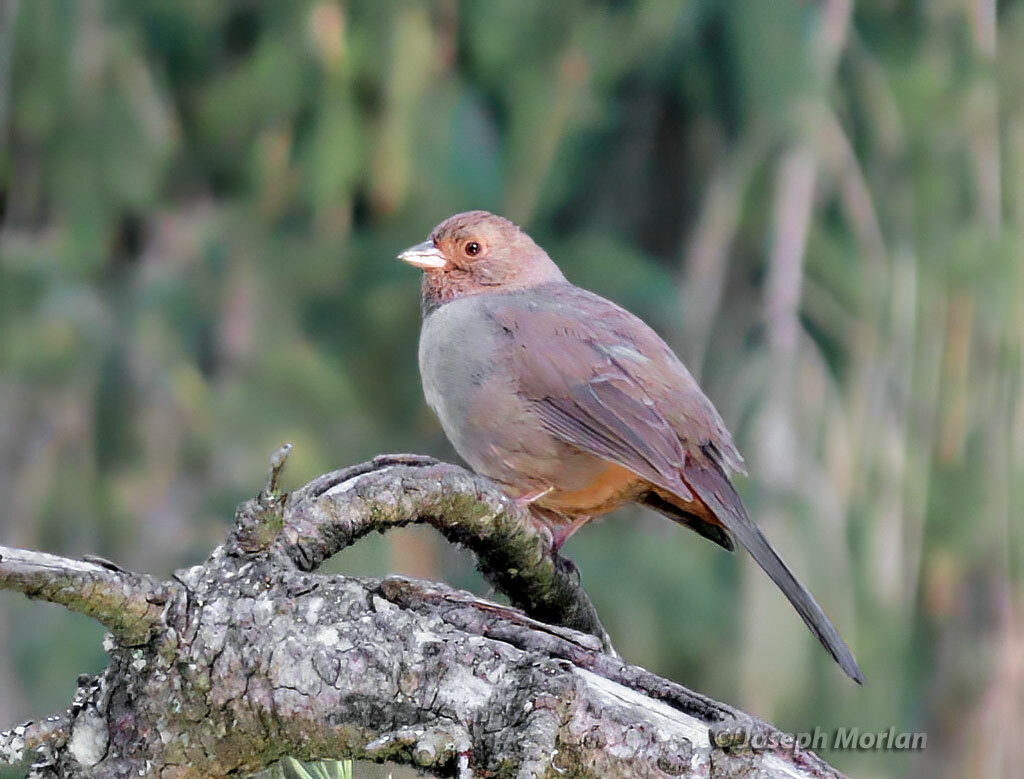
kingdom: Animalia
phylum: Chordata
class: Aves
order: Passeriformes
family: Passerellidae
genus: Melozone
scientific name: Melozone crissalis
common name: California towhee
